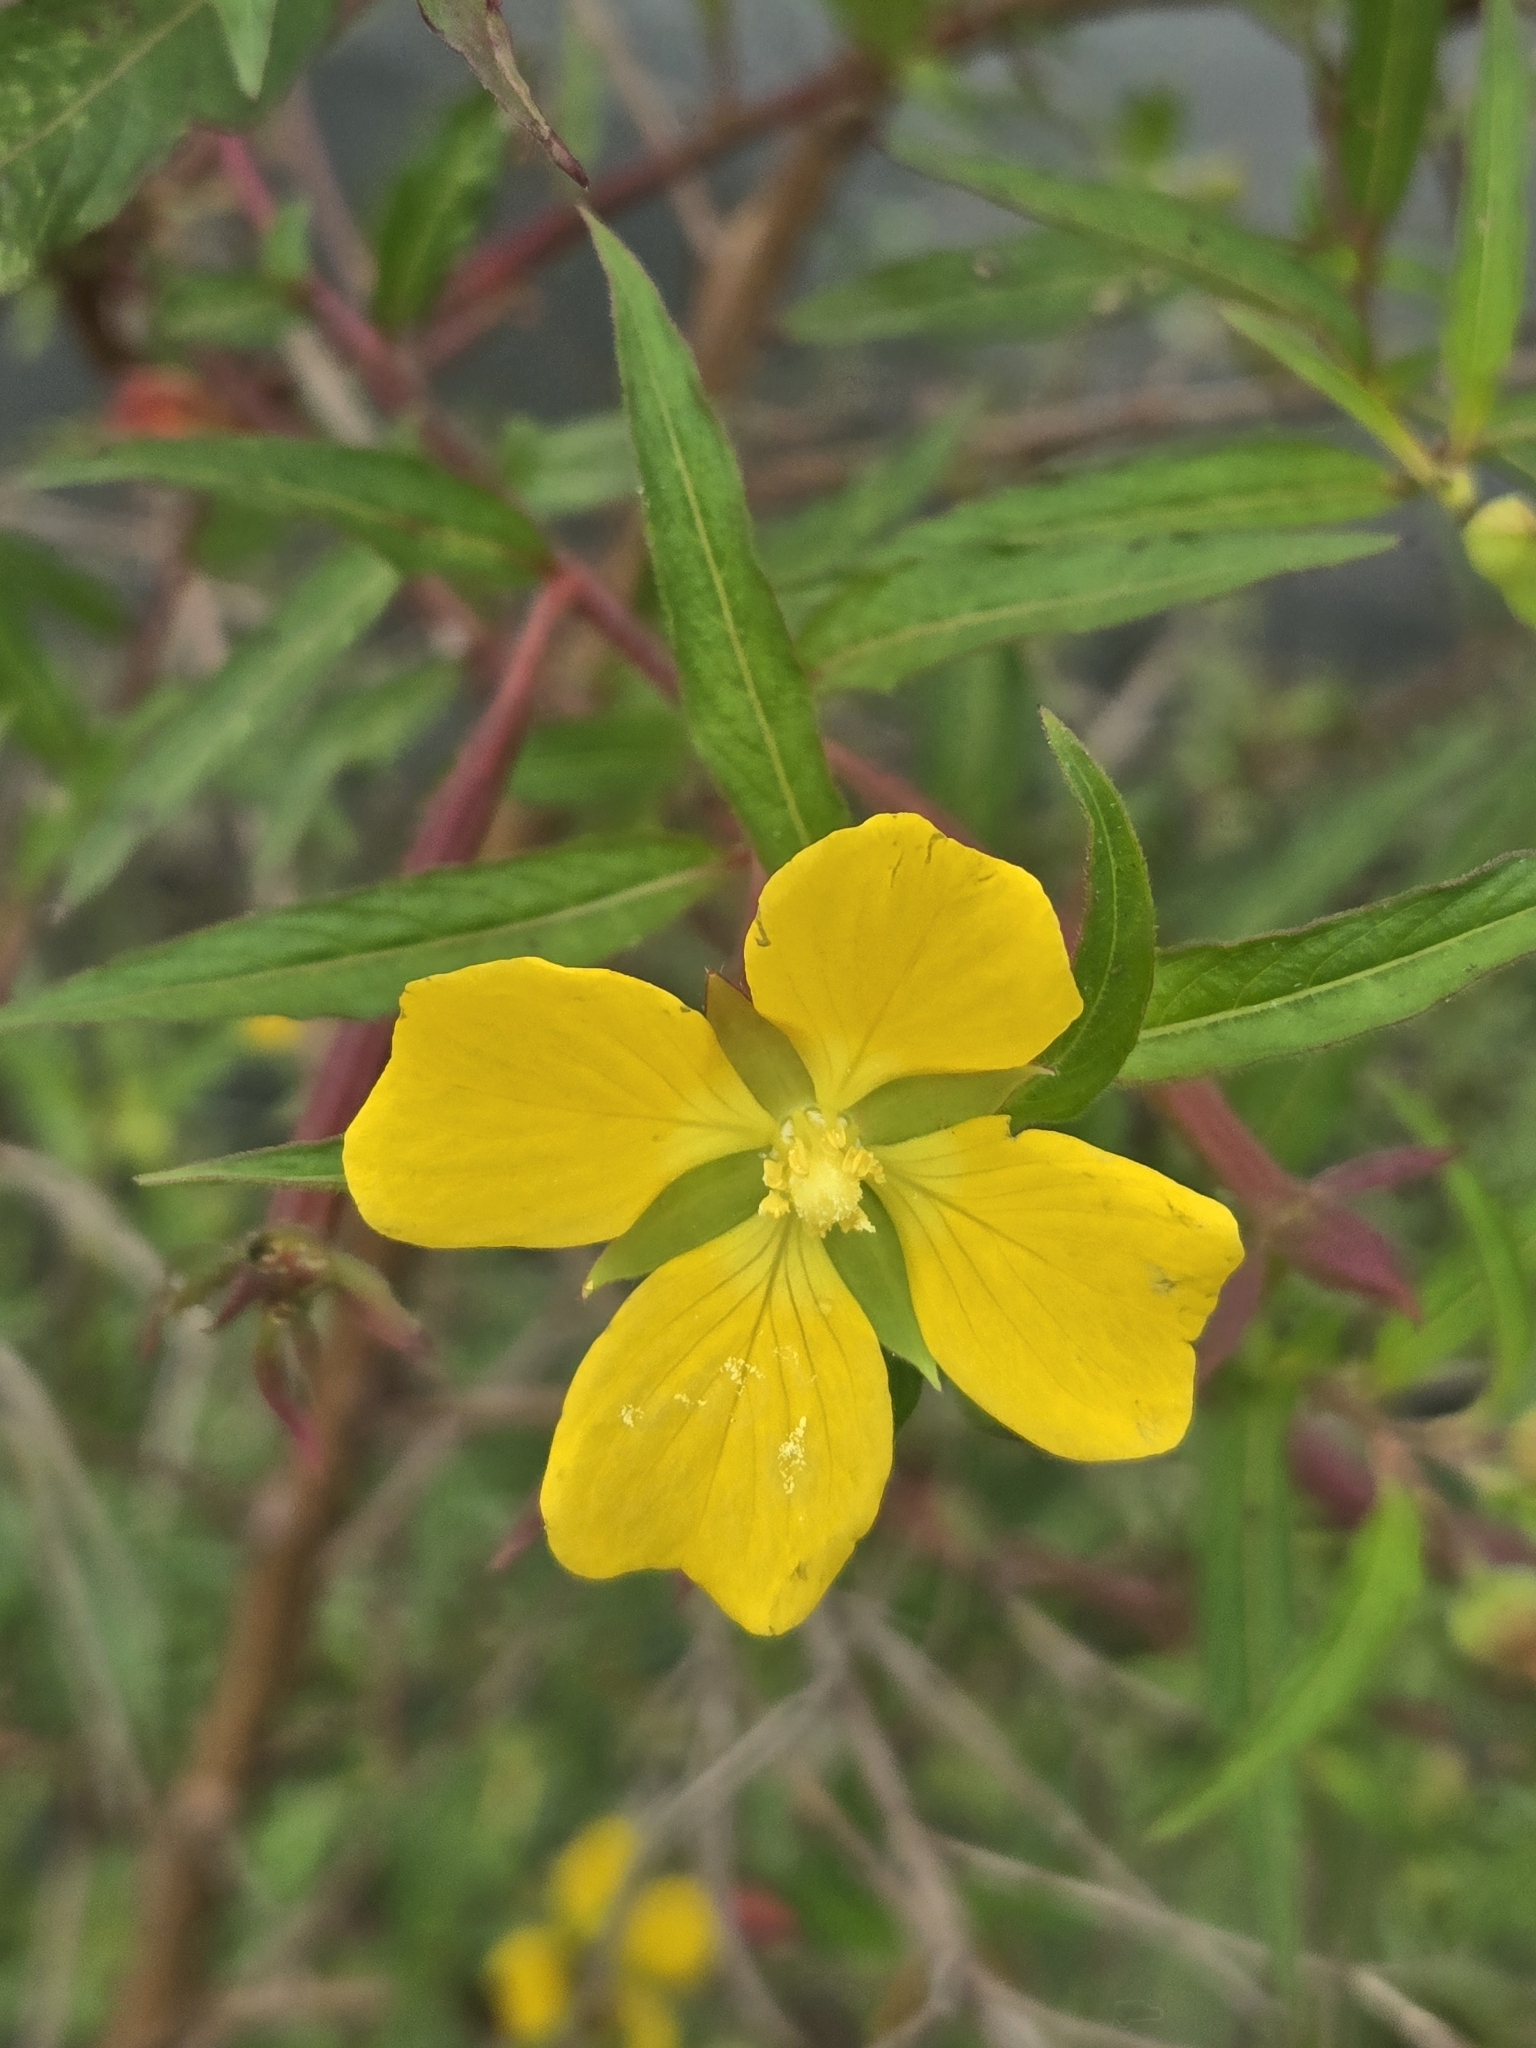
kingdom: Plantae
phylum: Tracheophyta
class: Magnoliopsida
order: Myrtales
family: Onagraceae
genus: Ludwigia
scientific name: Ludwigia octovalvis
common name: Water-primrose
